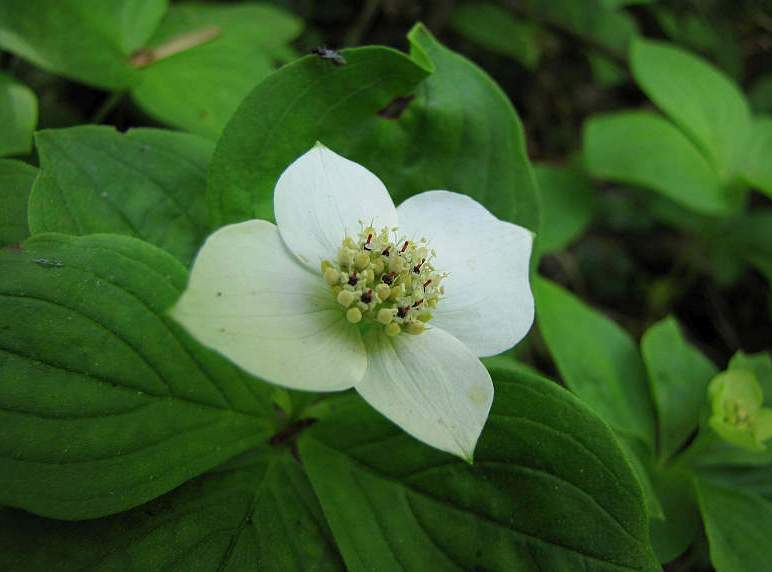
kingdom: Plantae
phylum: Tracheophyta
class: Magnoliopsida
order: Cornales
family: Cornaceae
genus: Cornus
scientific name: Cornus canadensis
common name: Creeping dogwood
